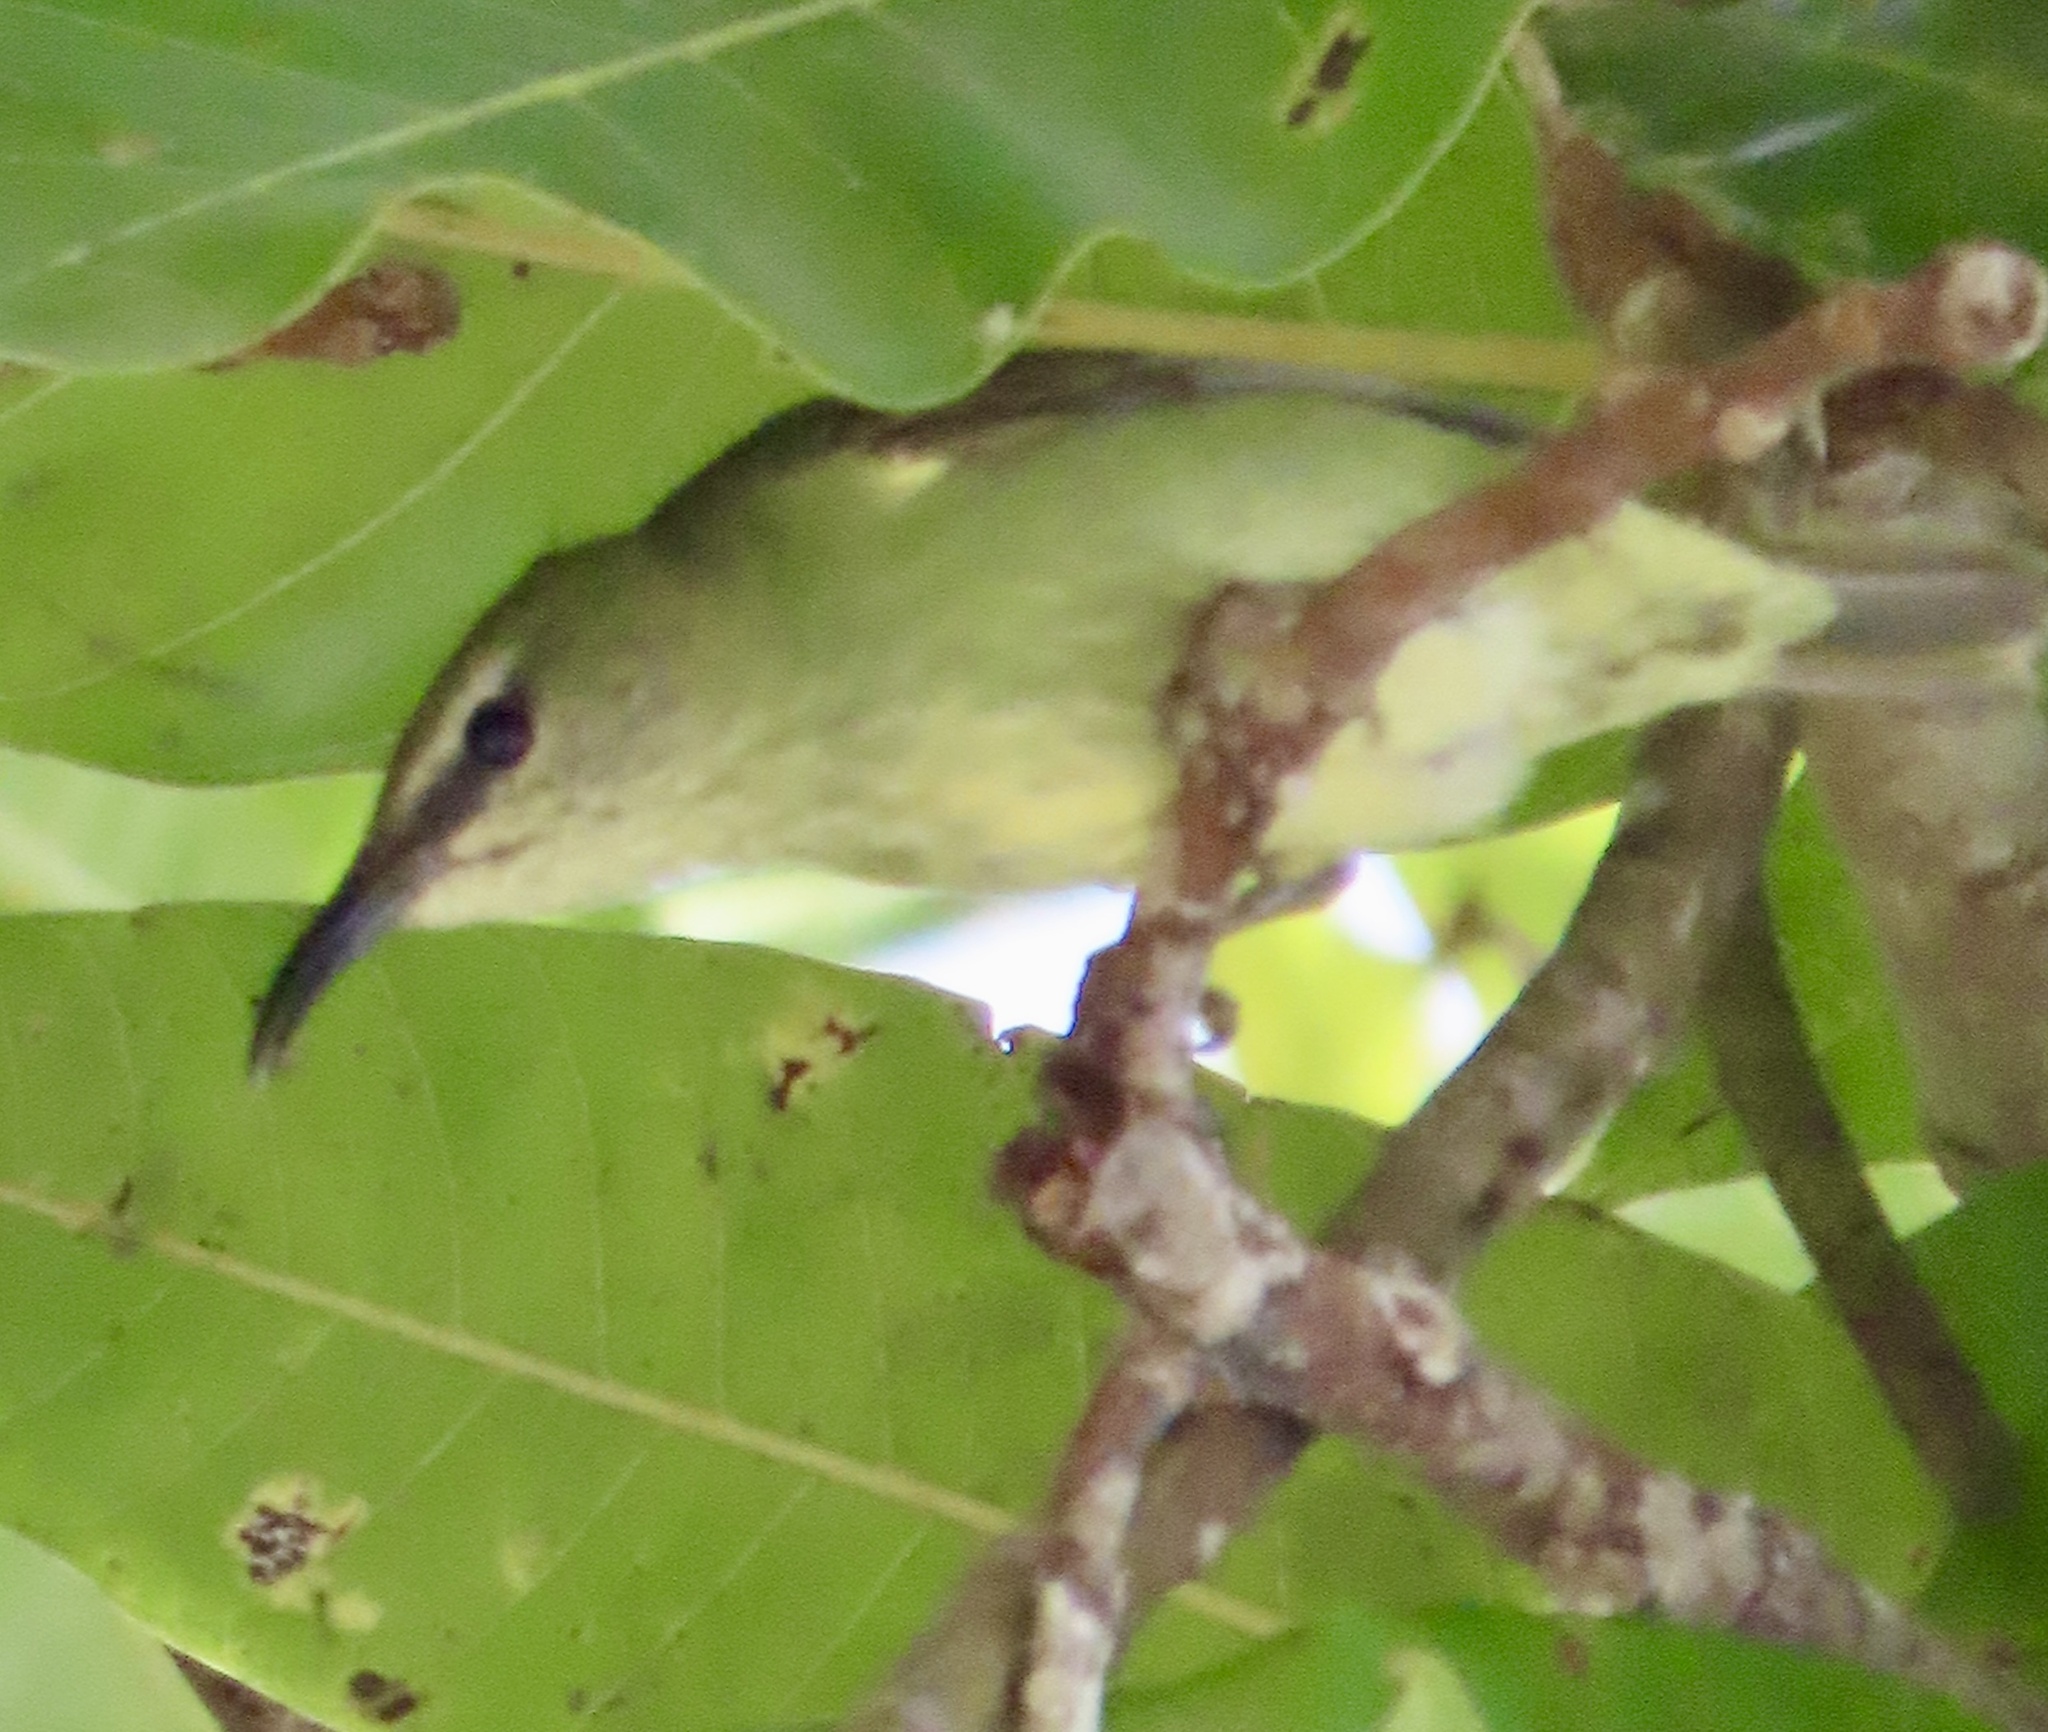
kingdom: Animalia
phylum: Chordata
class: Aves
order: Passeriformes
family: Thraupidae
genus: Cyanerpes
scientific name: Cyanerpes cyaneus
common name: Red-legged honeycreeper
